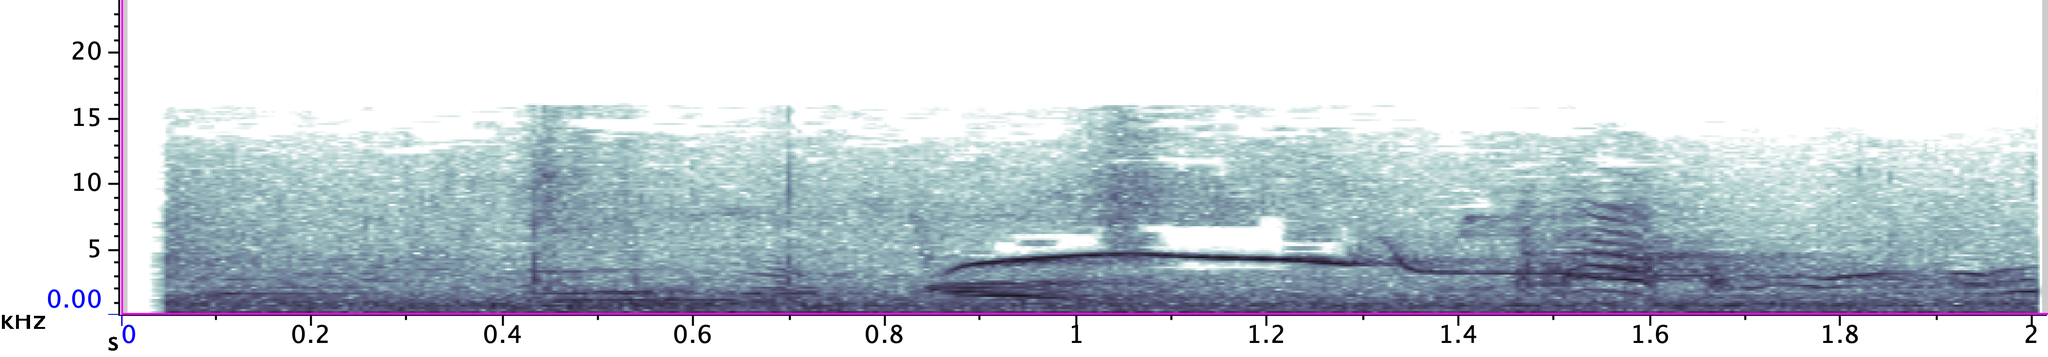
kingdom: Animalia
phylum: Chordata
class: Aves
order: Passeriformes
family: Tyrannidae
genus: Contopus
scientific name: Contopus virens
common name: Eastern wood-pewee
